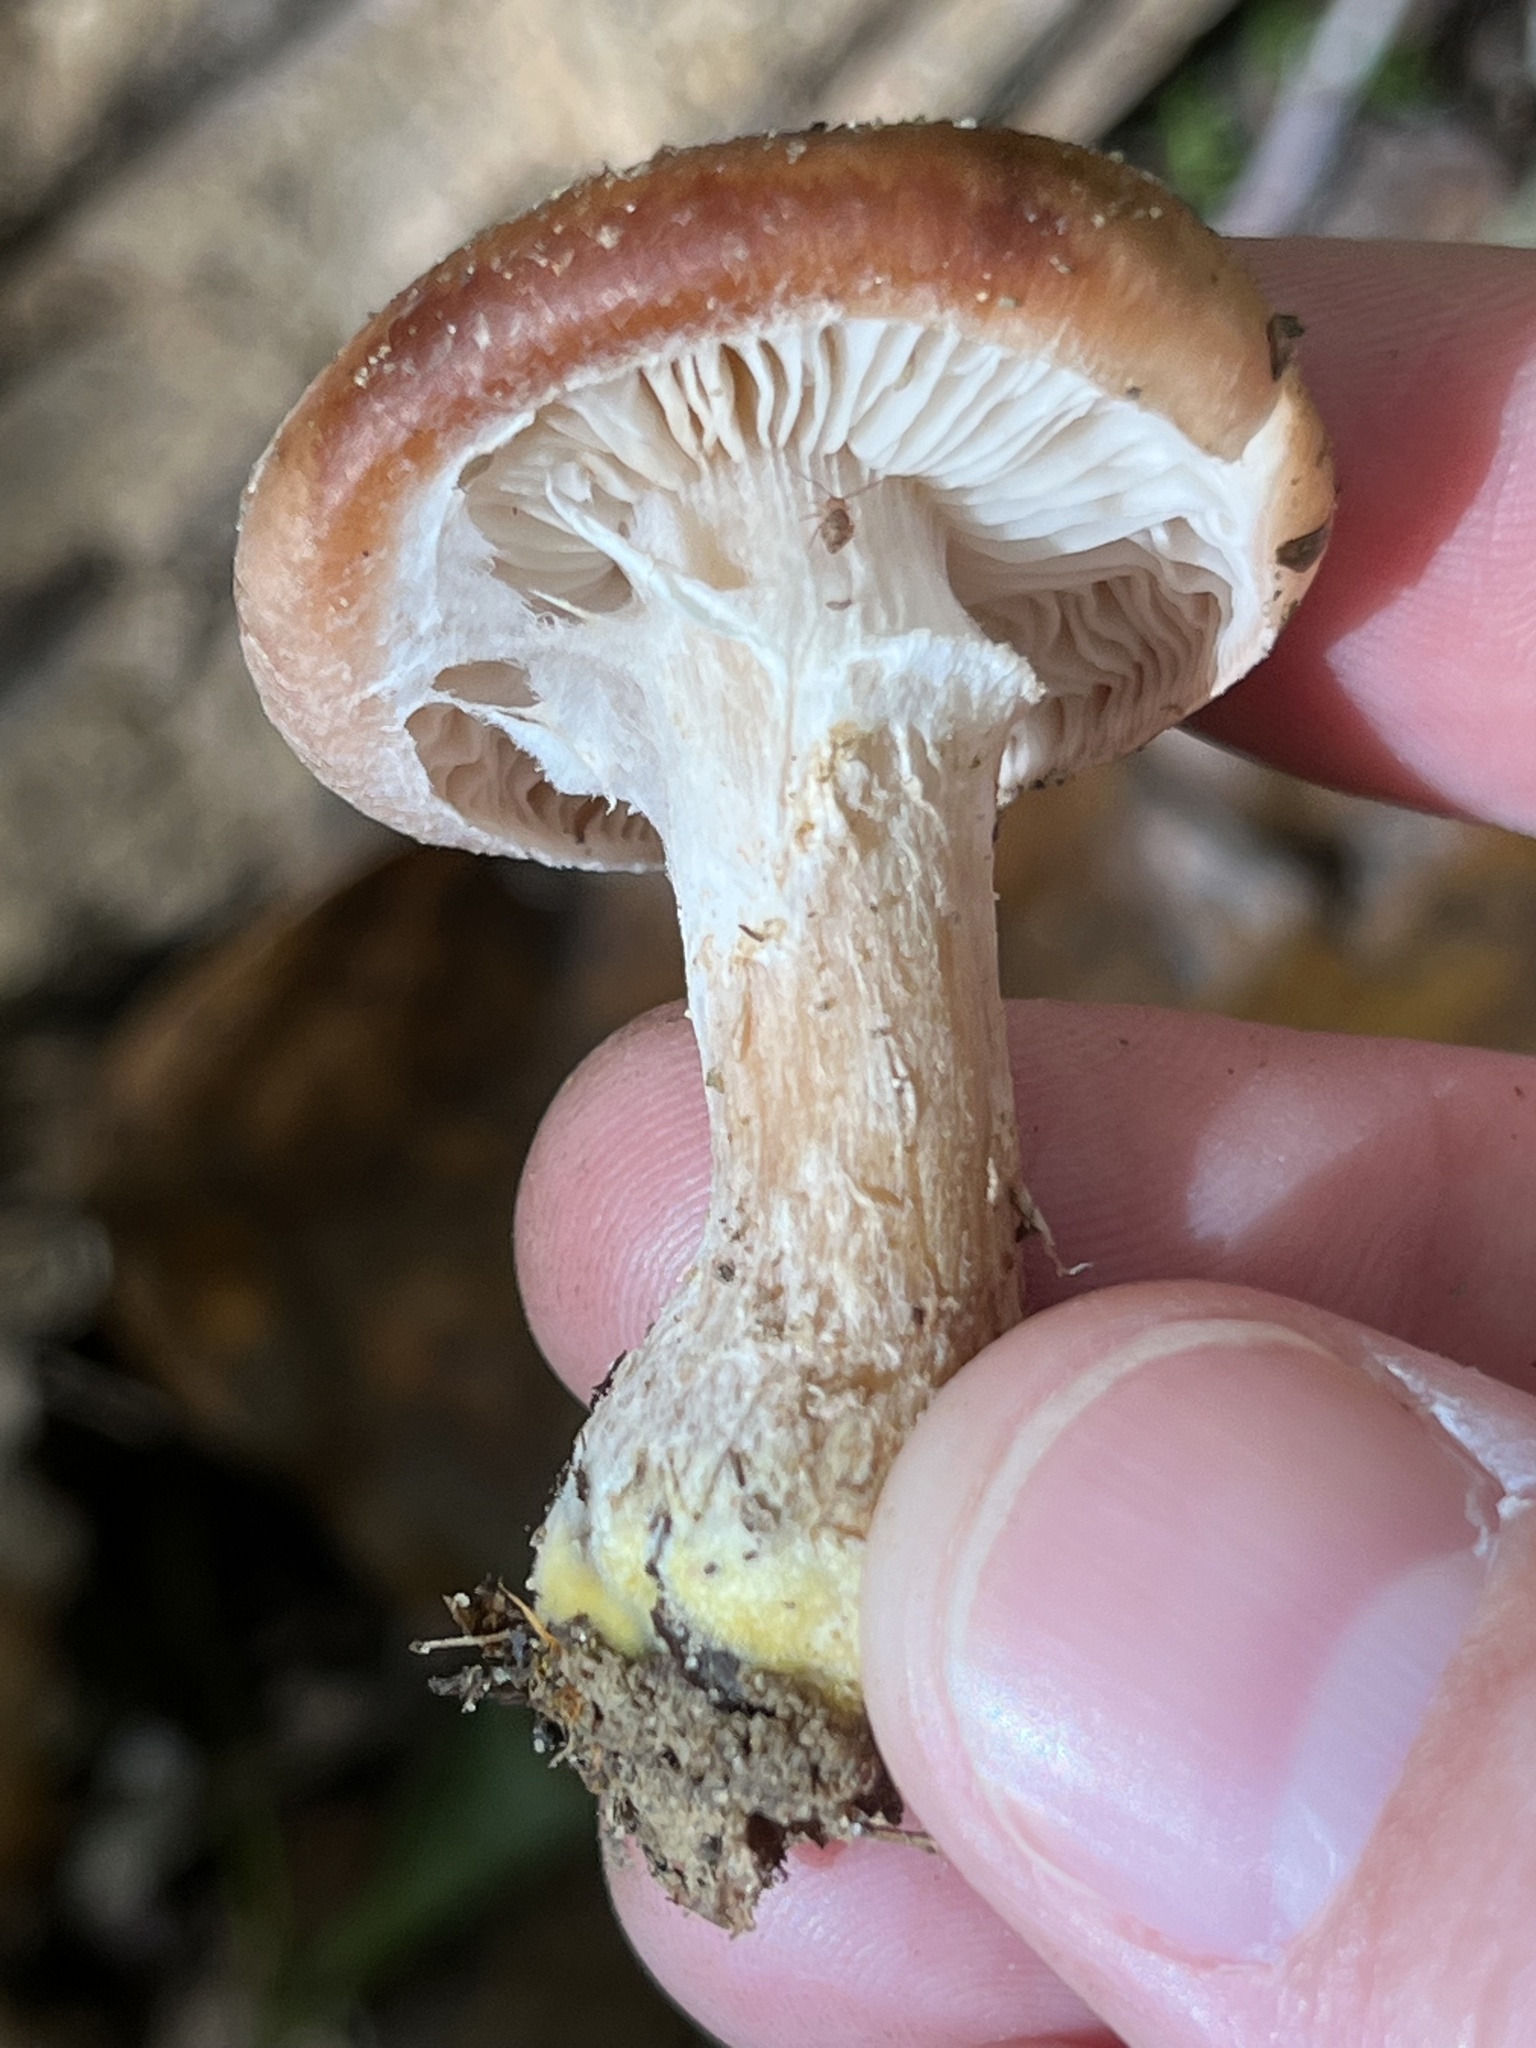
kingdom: Fungi
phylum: Basidiomycota
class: Agaricomycetes
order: Agaricales
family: Physalacriaceae
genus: Armillaria
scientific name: Armillaria gallica
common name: Bulbous honey fungus
